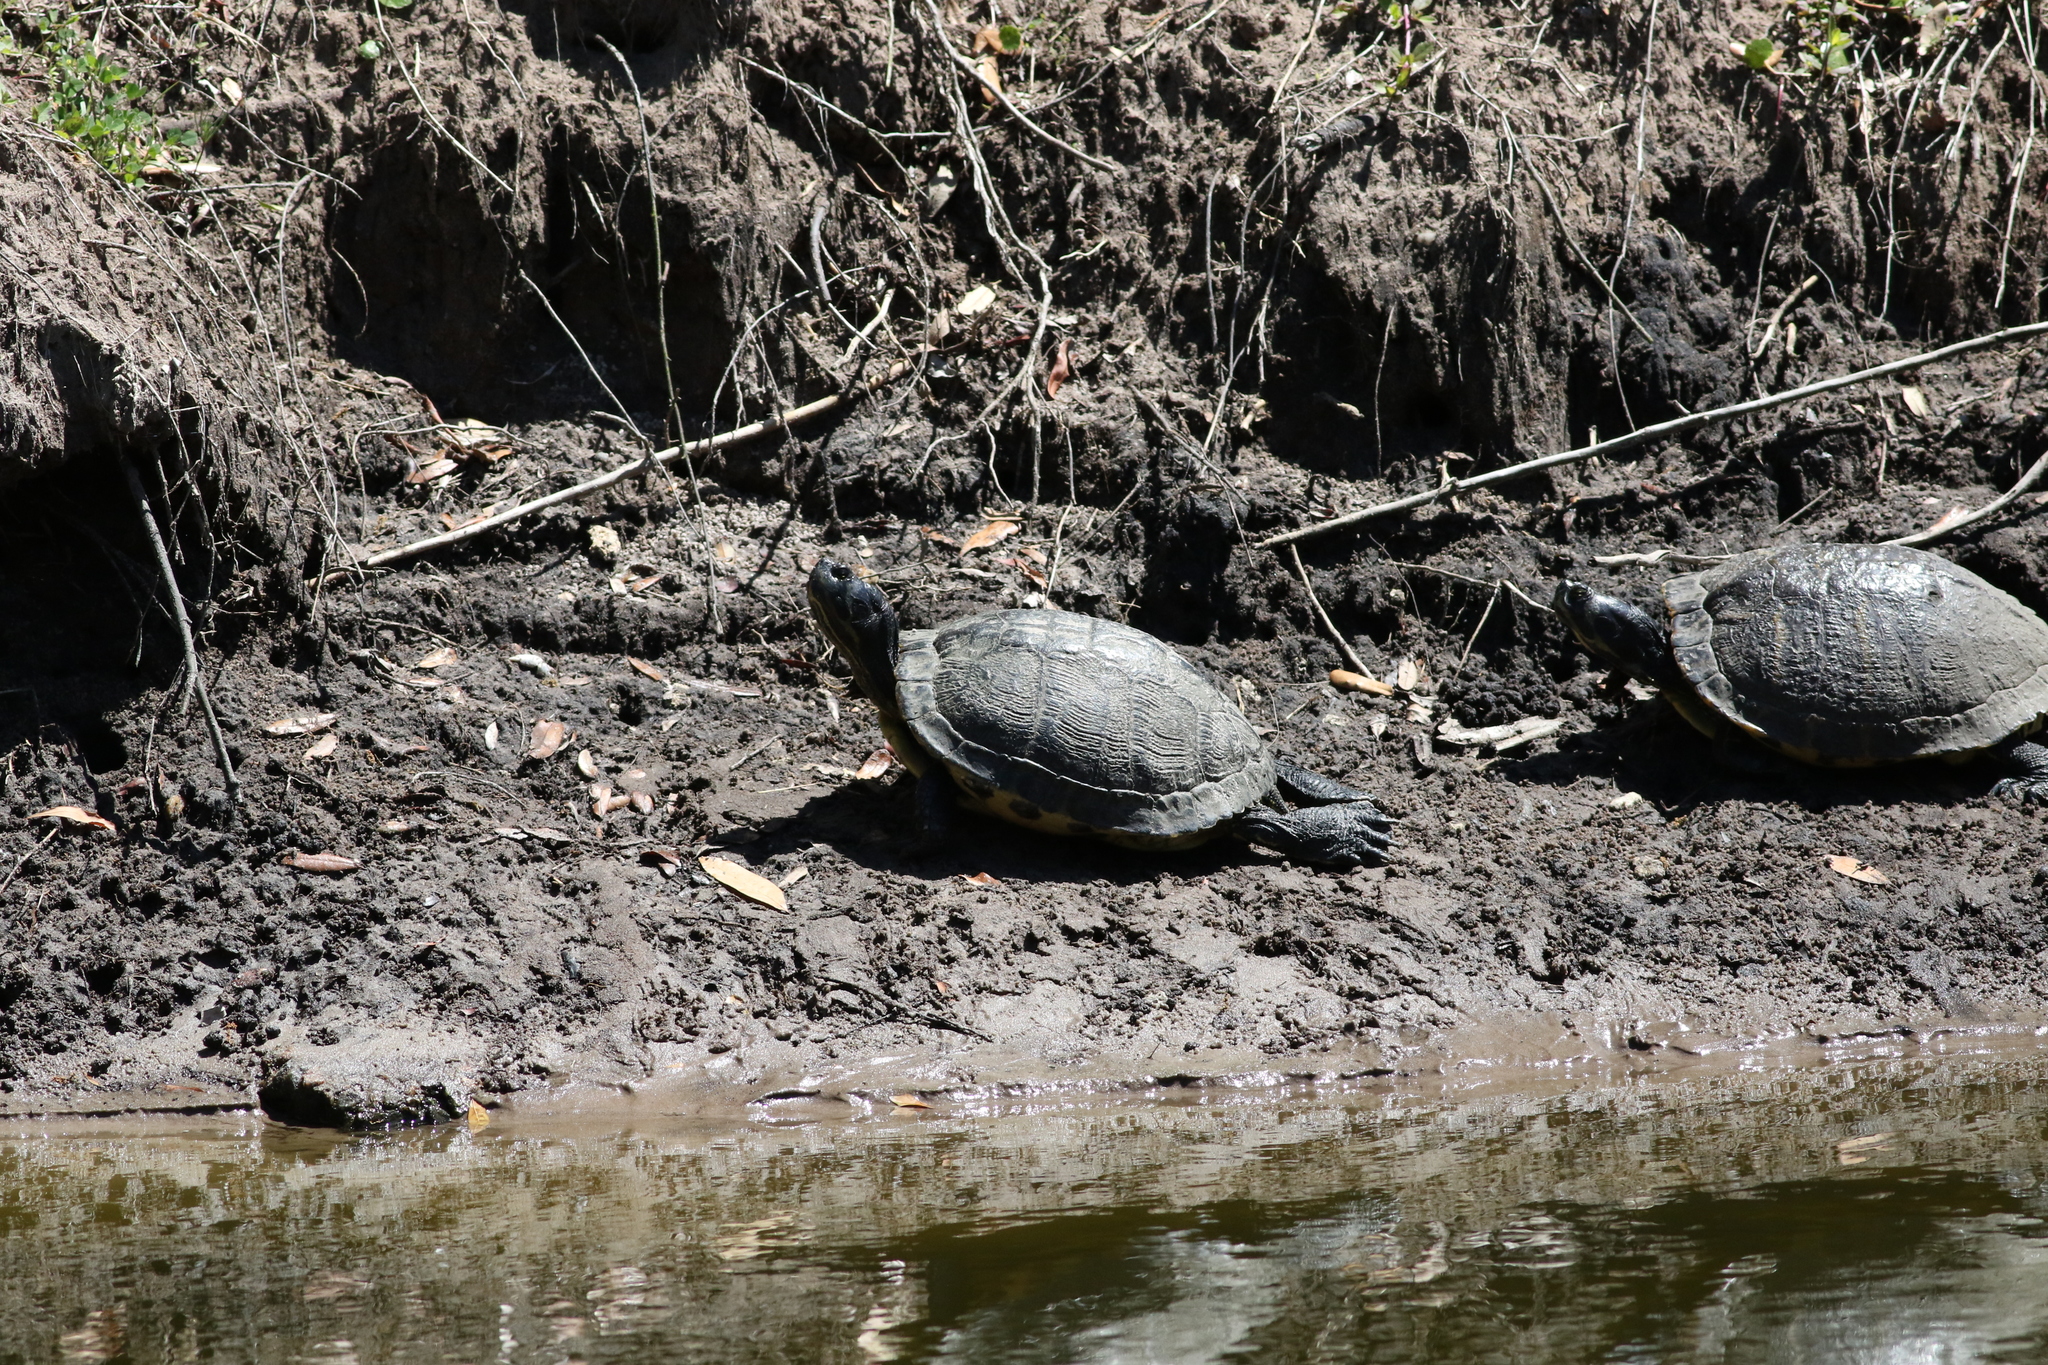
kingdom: Animalia
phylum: Chordata
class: Testudines
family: Emydidae
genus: Trachemys
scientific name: Trachemys scripta
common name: Slider
